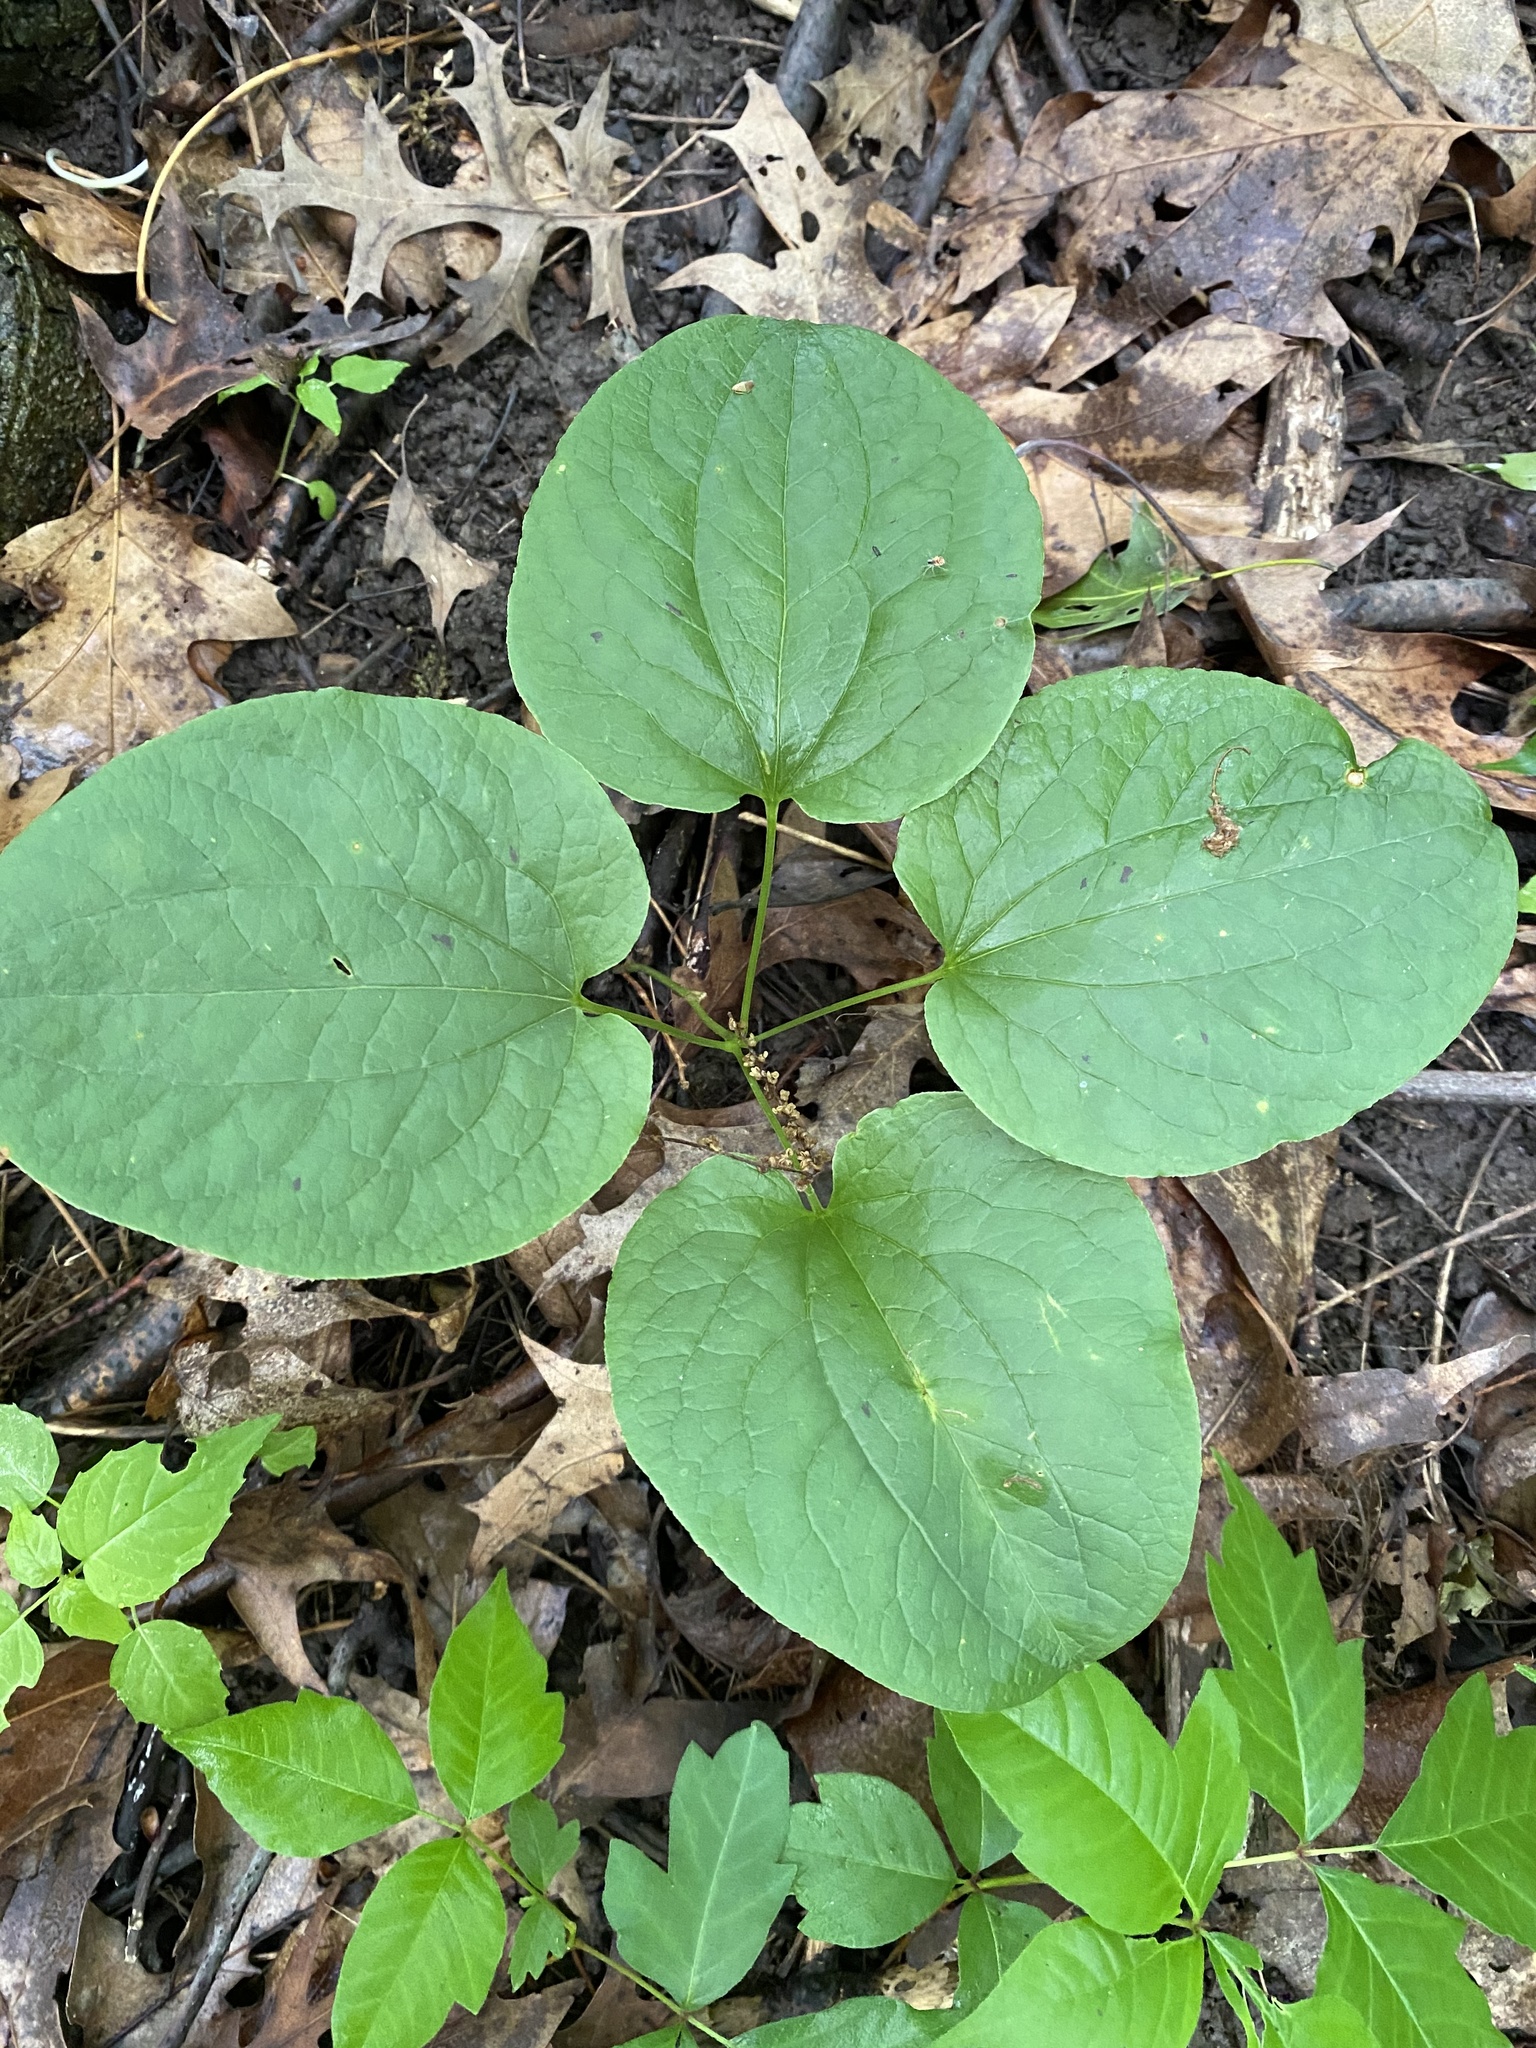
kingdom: Plantae
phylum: Tracheophyta
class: Liliopsida
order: Liliales
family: Smilacaceae
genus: Smilax
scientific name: Smilax ecirrhata
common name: Upright carrionflower
